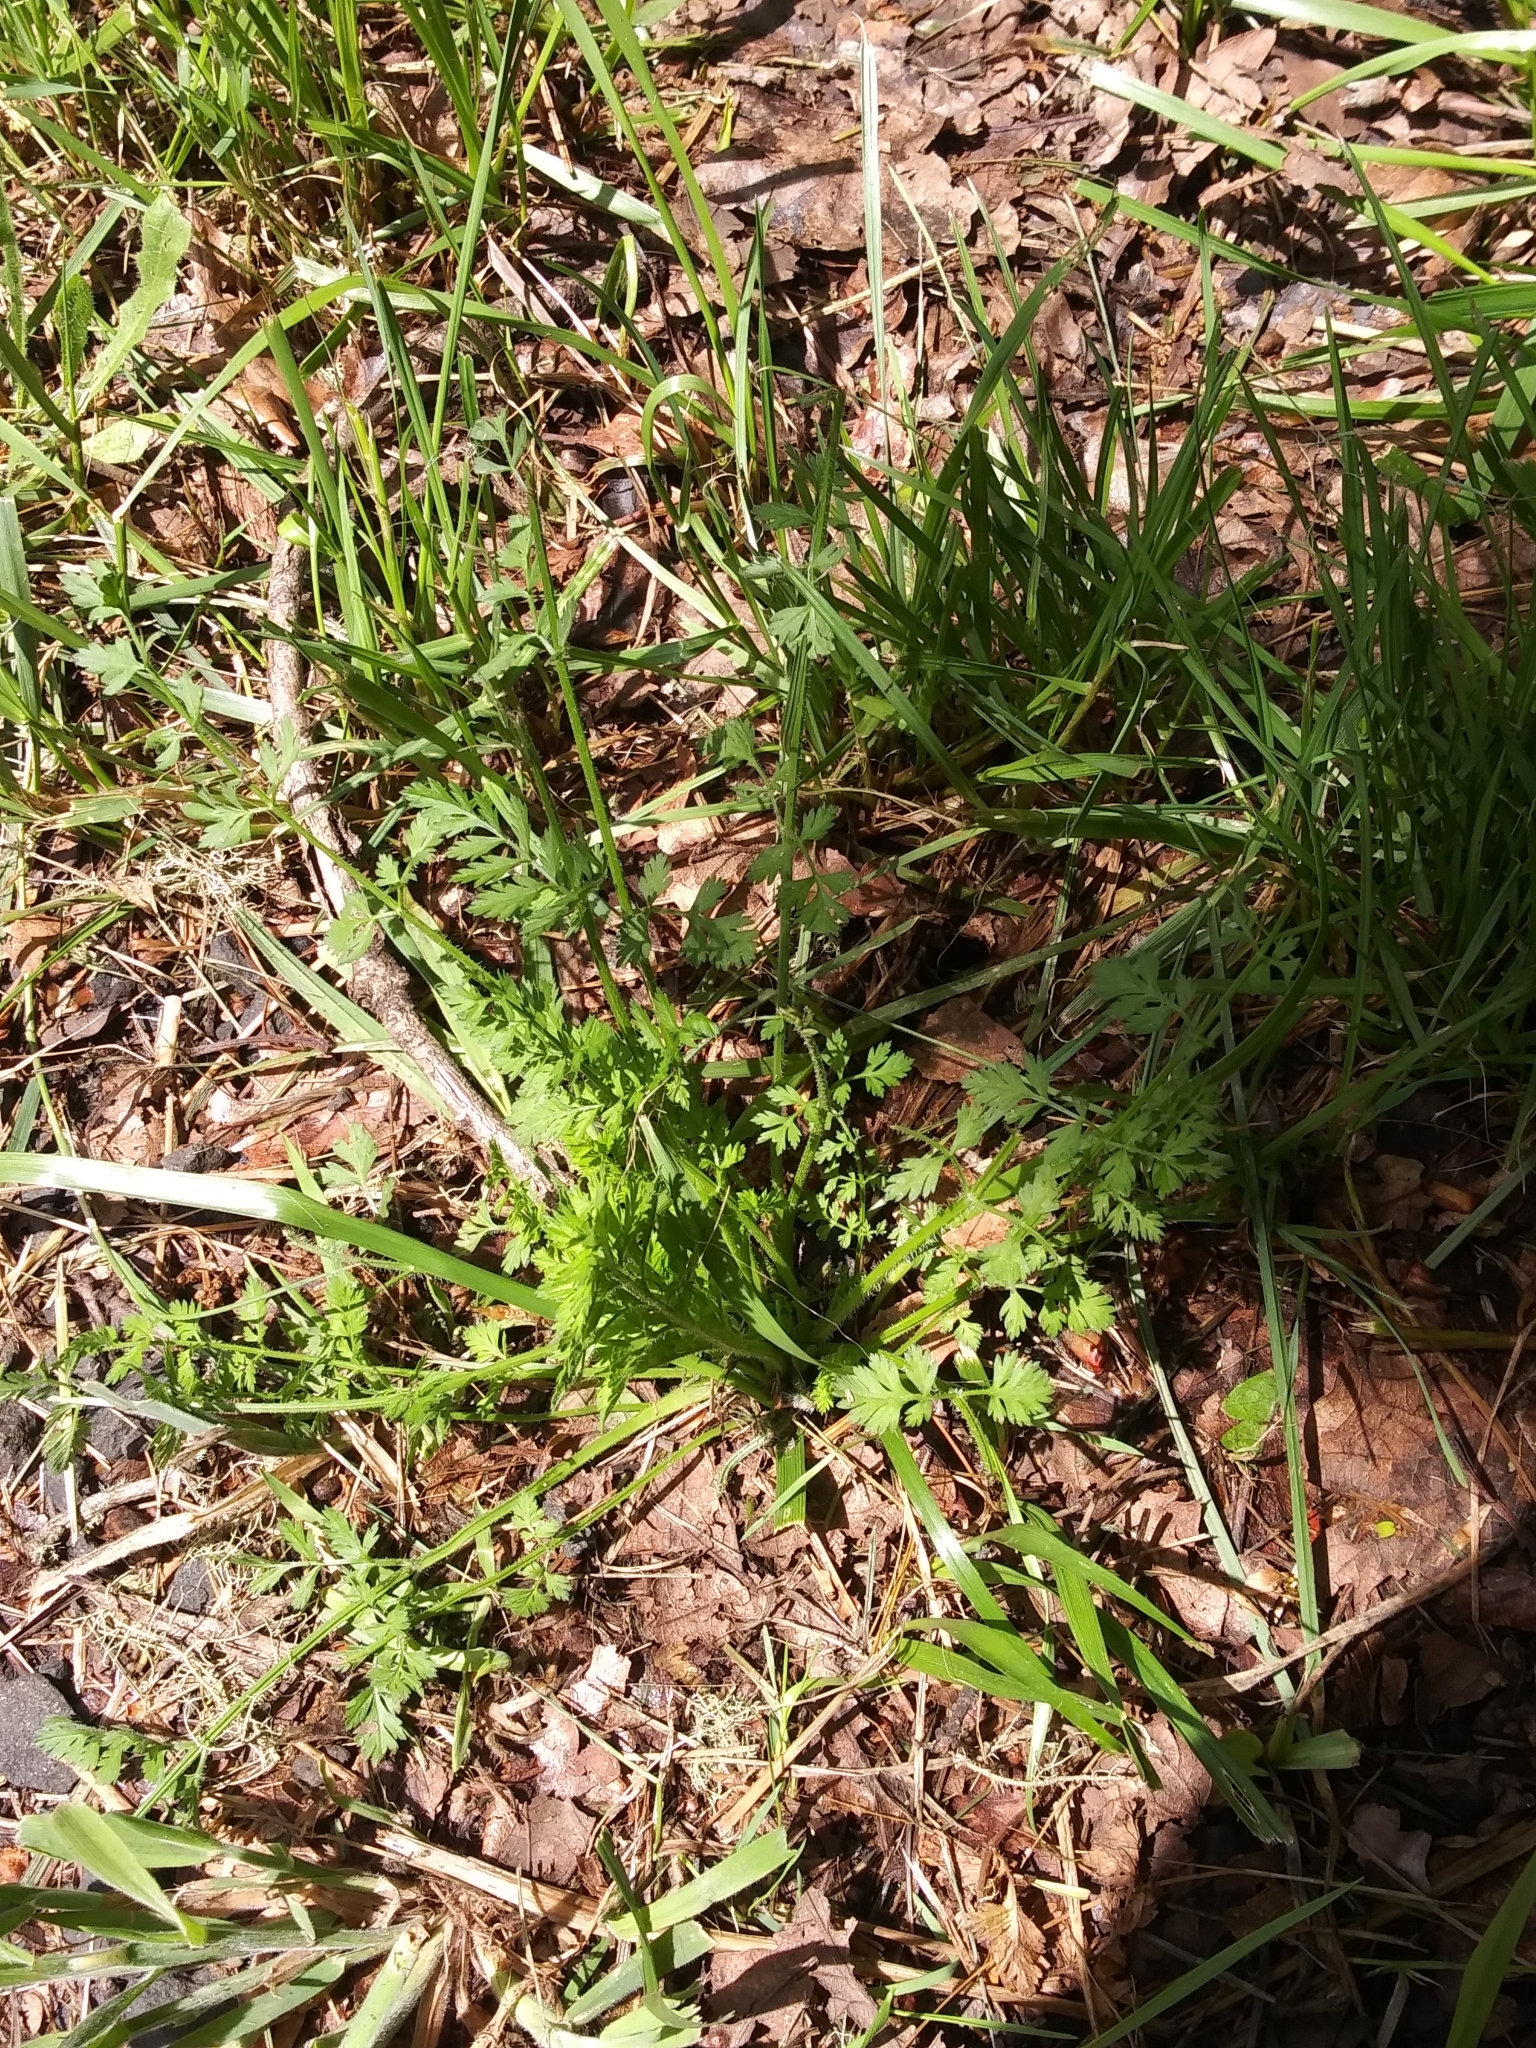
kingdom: Plantae
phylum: Tracheophyta
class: Magnoliopsida
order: Apiales
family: Apiaceae
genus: Daucus
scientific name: Daucus carota
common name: Wild carrot
